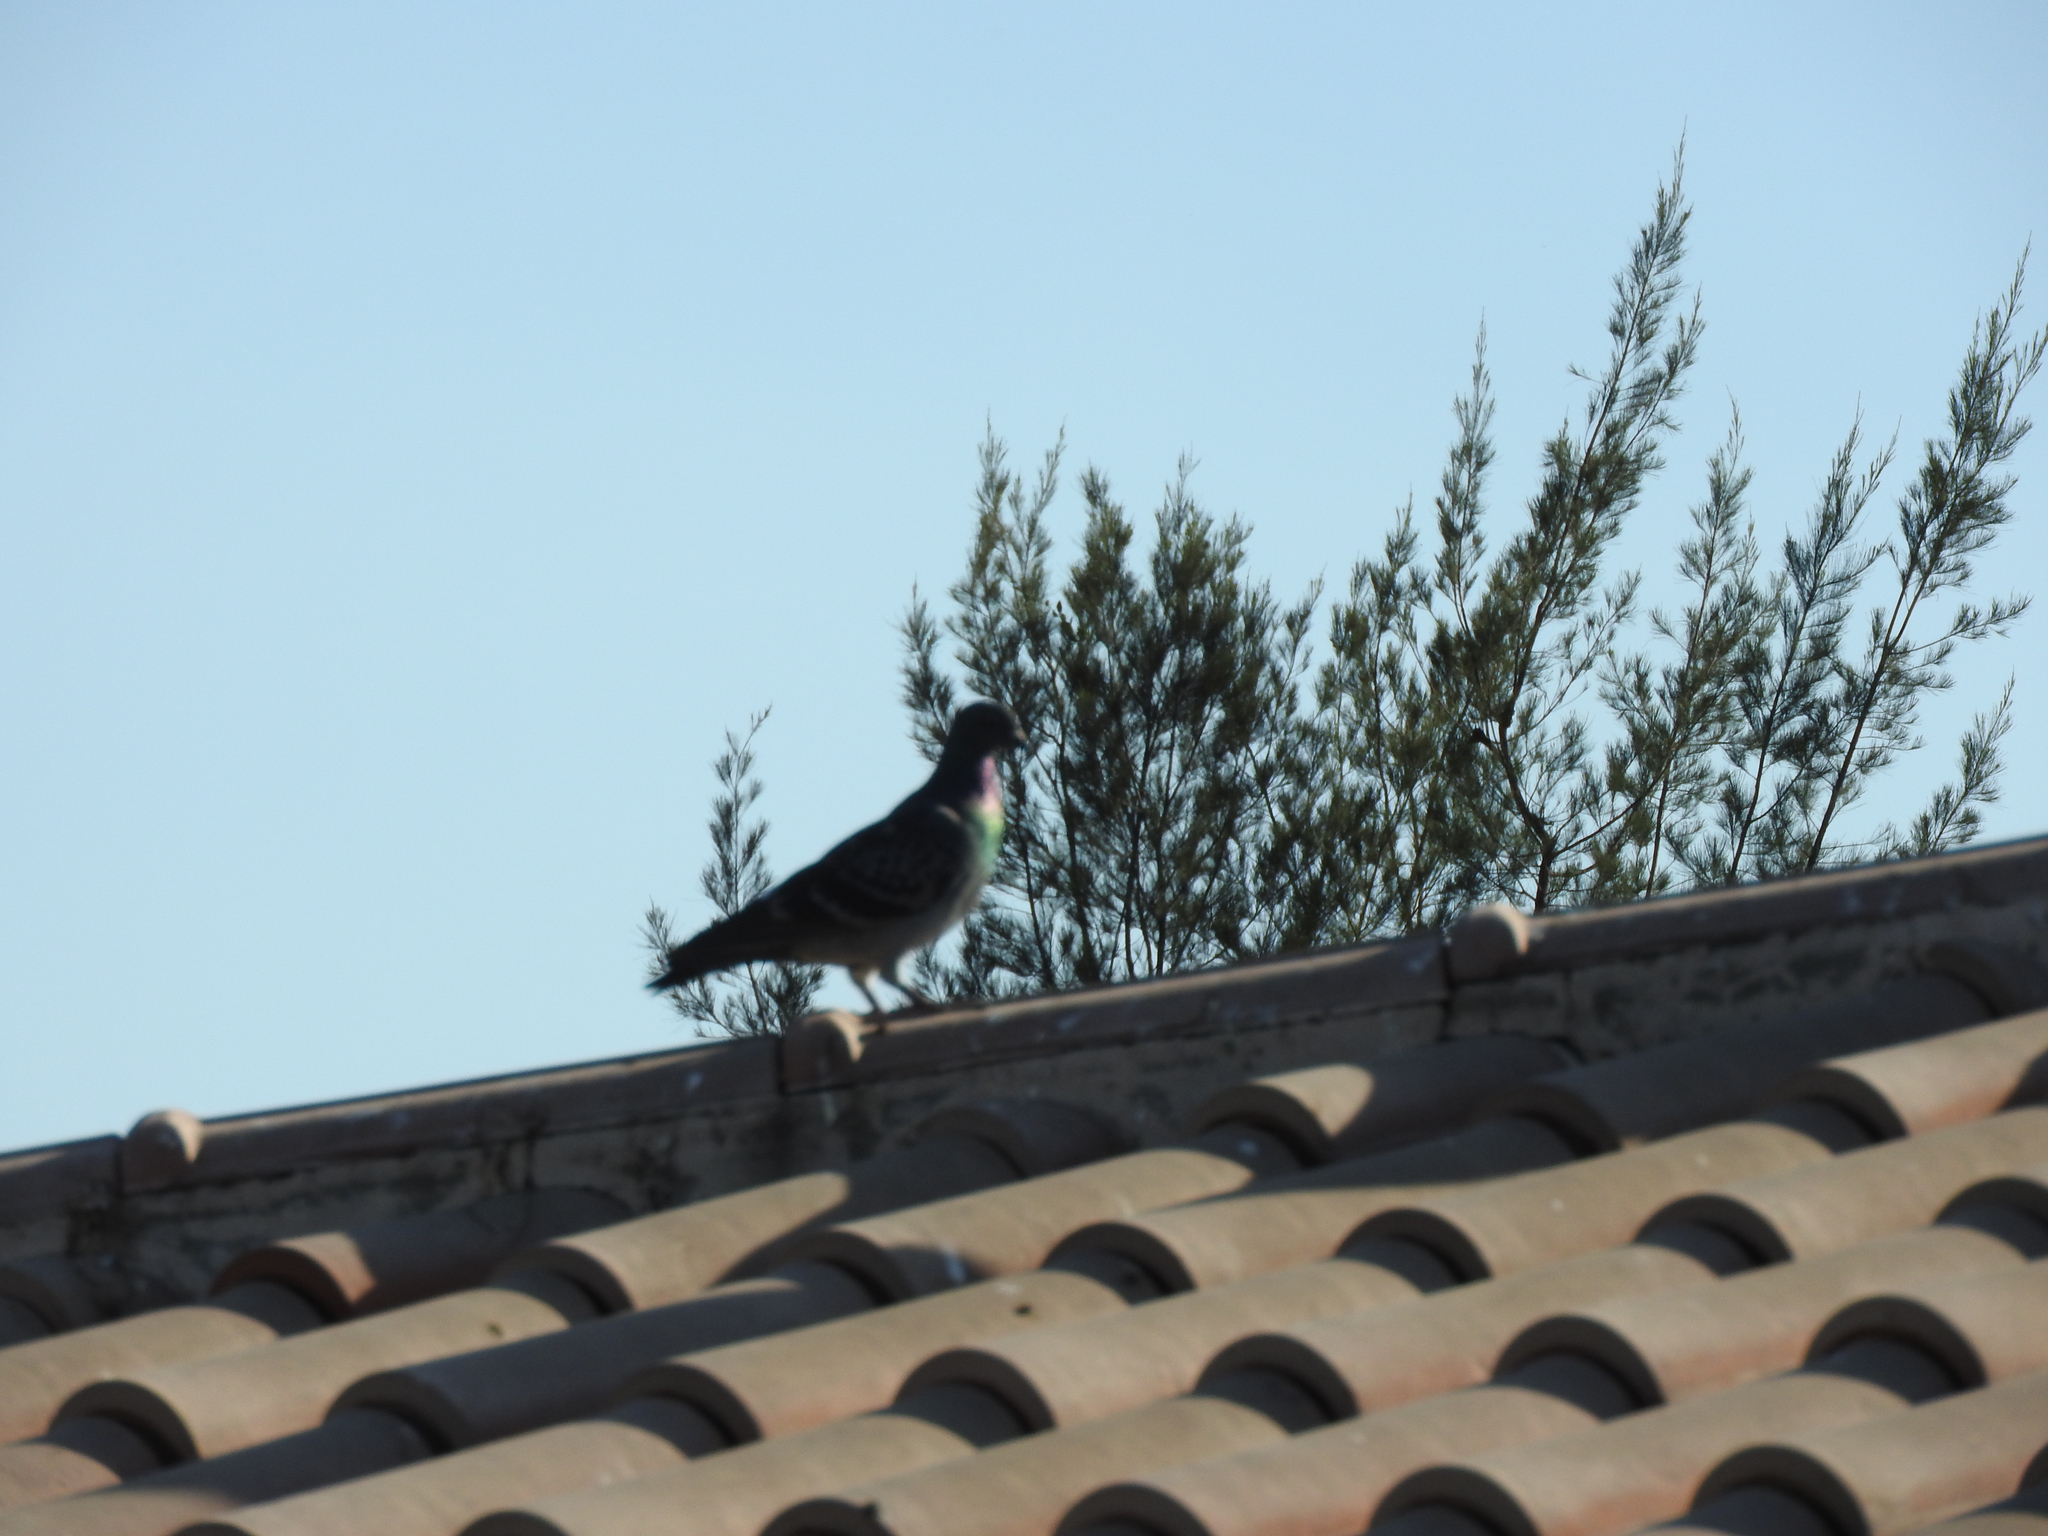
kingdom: Animalia
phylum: Chordata
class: Aves
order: Columbiformes
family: Columbidae
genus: Columba
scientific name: Columba livia
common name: Rock pigeon
